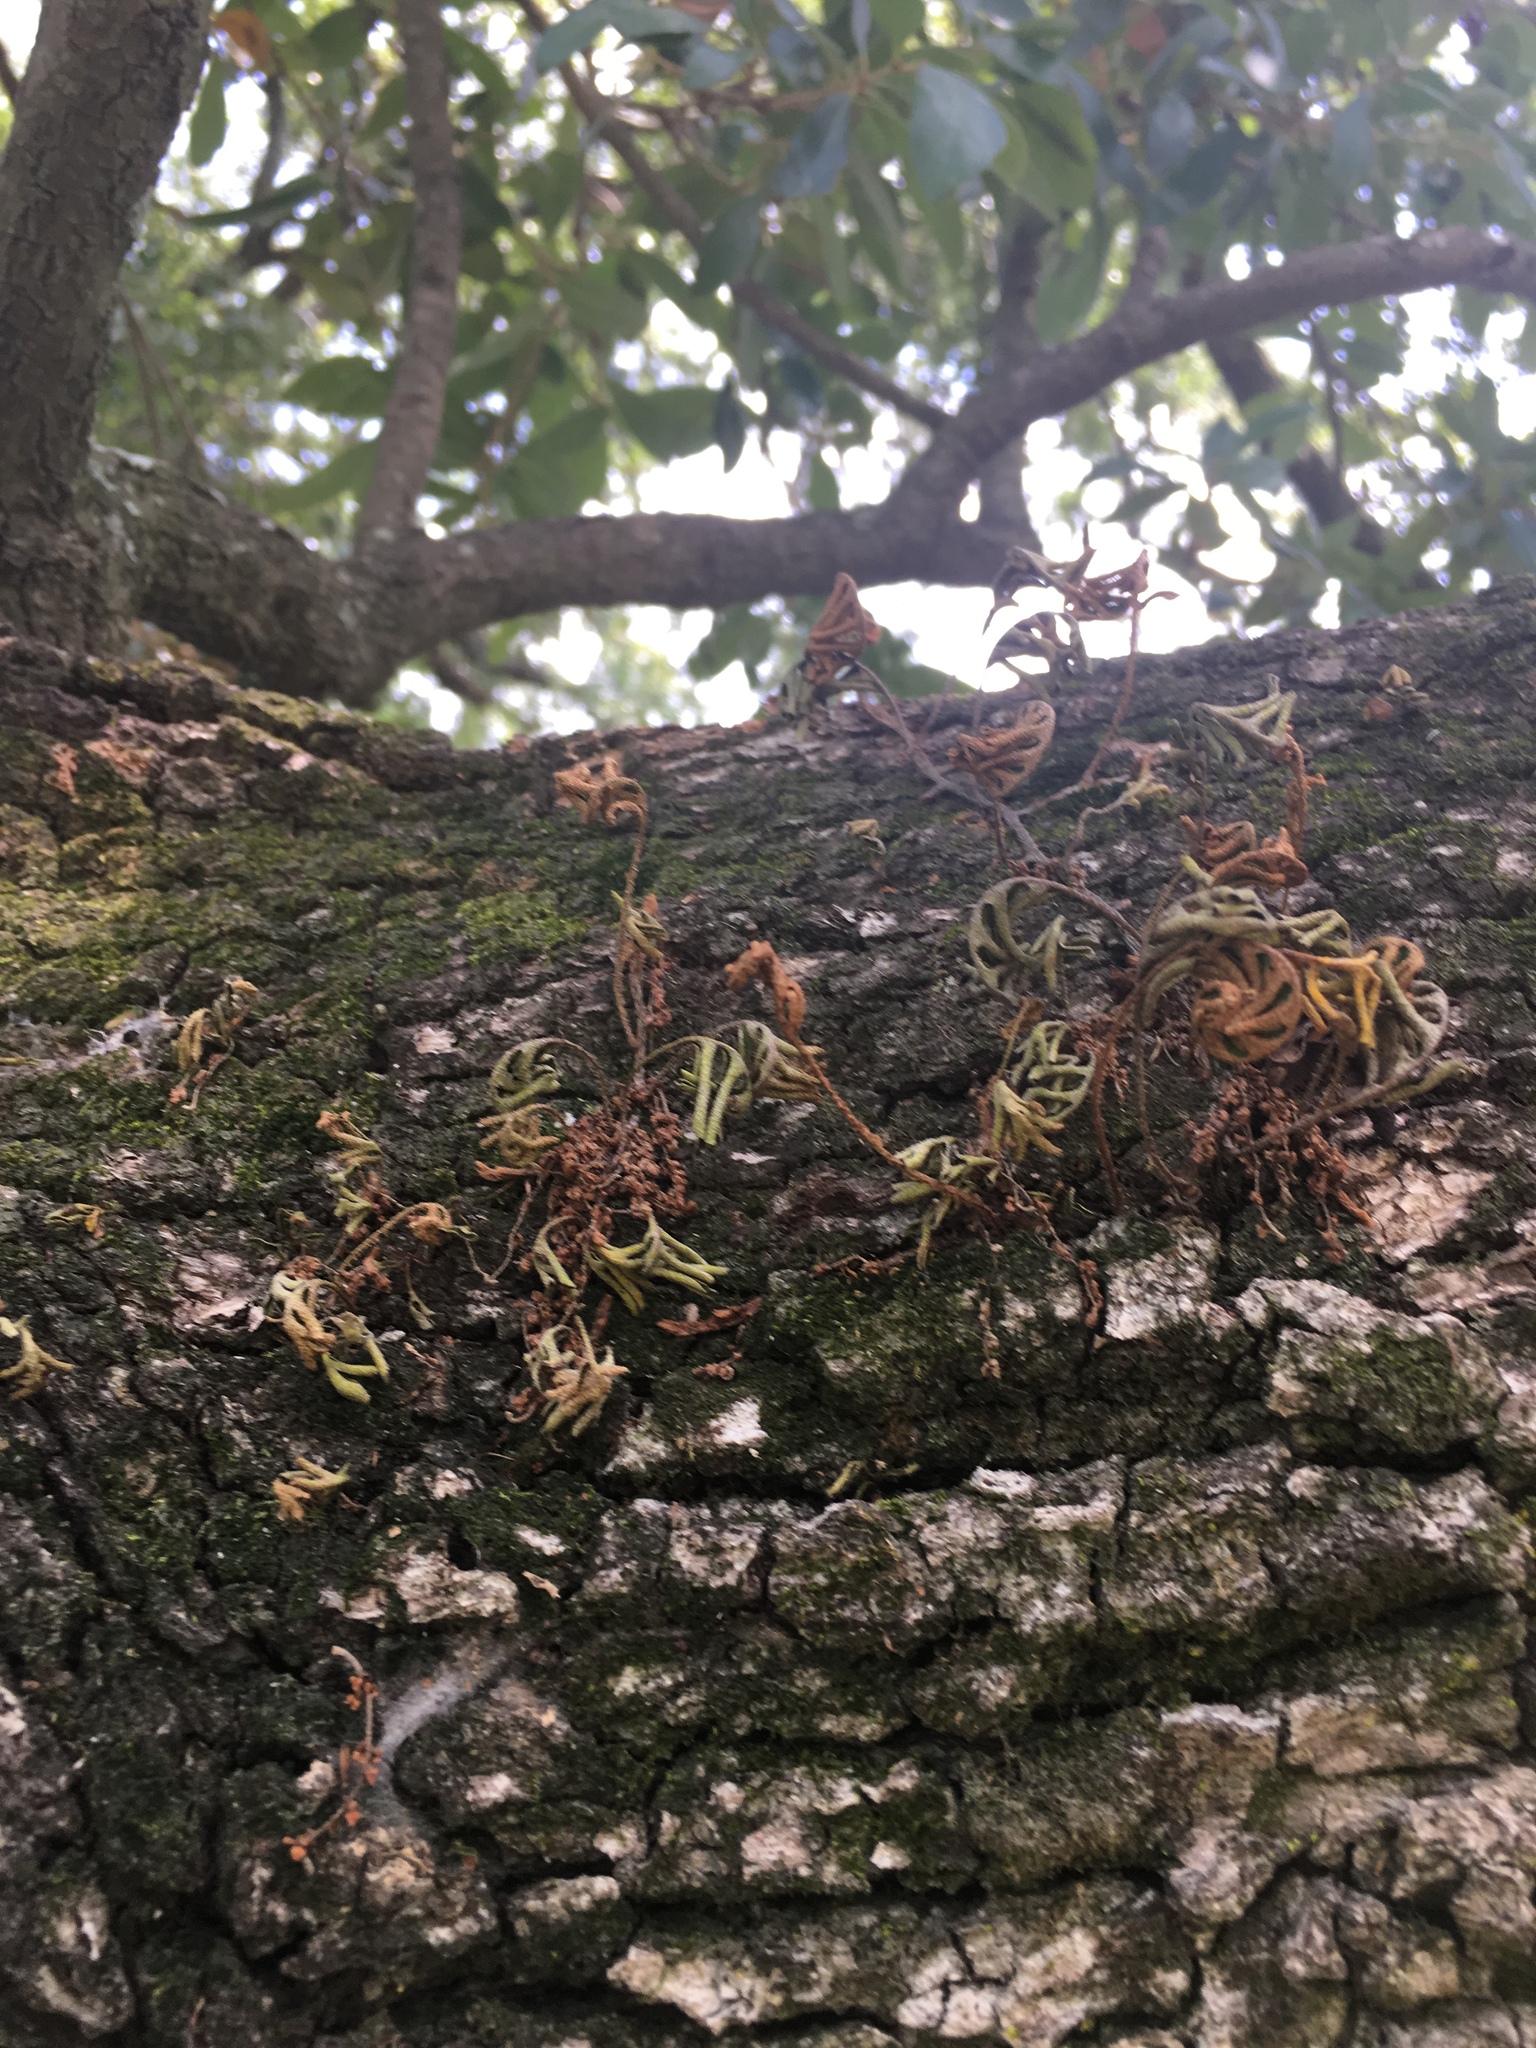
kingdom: Plantae
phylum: Tracheophyta
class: Polypodiopsida
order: Polypodiales
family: Polypodiaceae
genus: Pleopeltis
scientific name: Pleopeltis michauxiana
